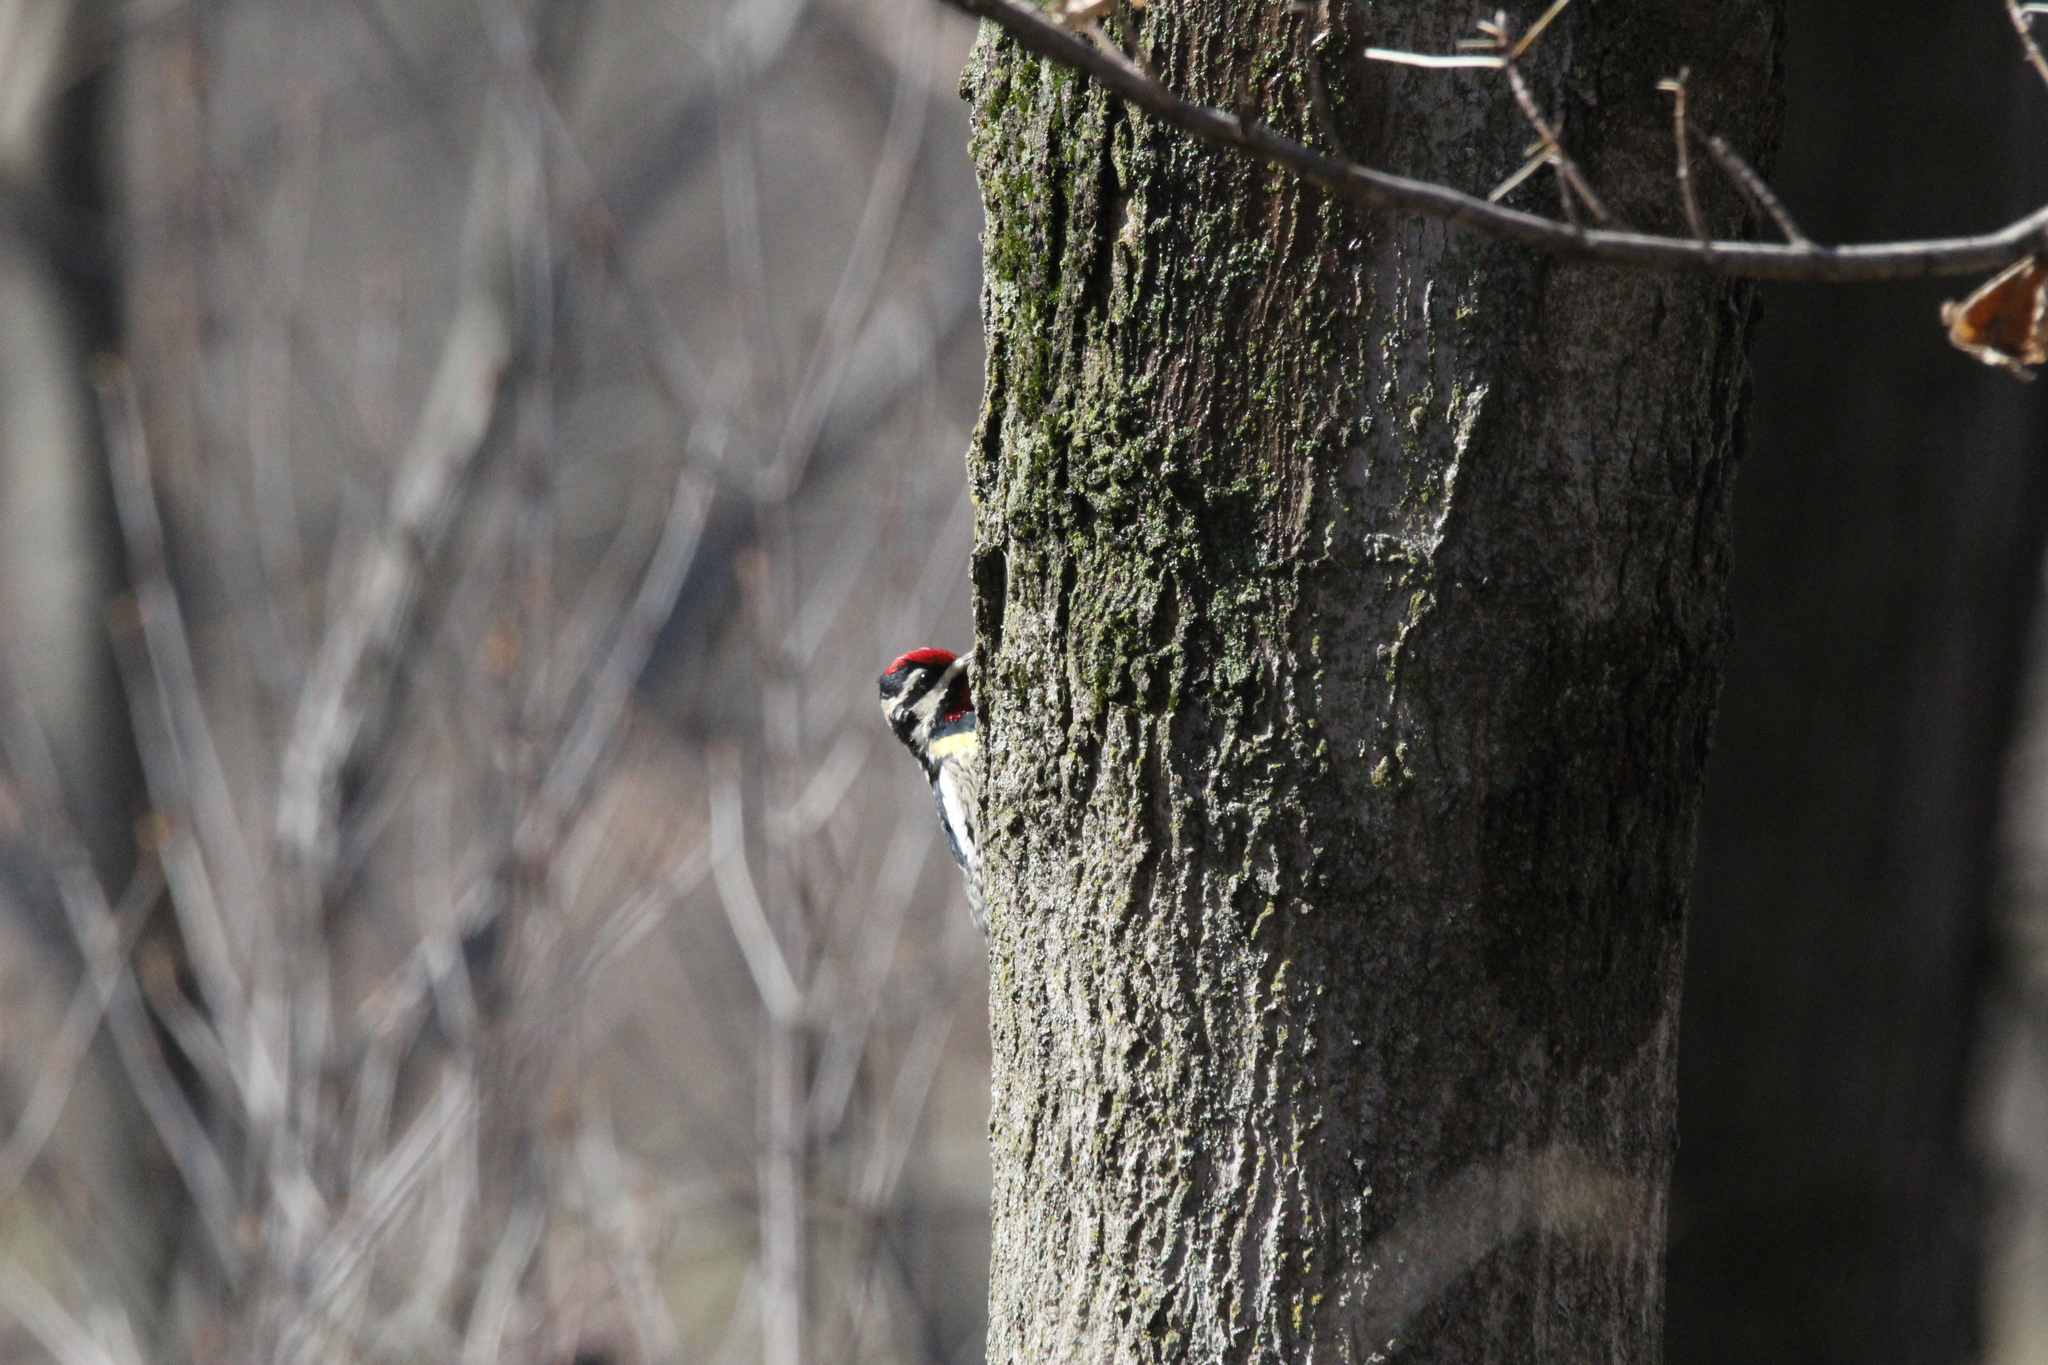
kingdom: Animalia
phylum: Chordata
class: Aves
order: Piciformes
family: Picidae
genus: Sphyrapicus
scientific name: Sphyrapicus varius
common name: Yellow-bellied sapsucker
